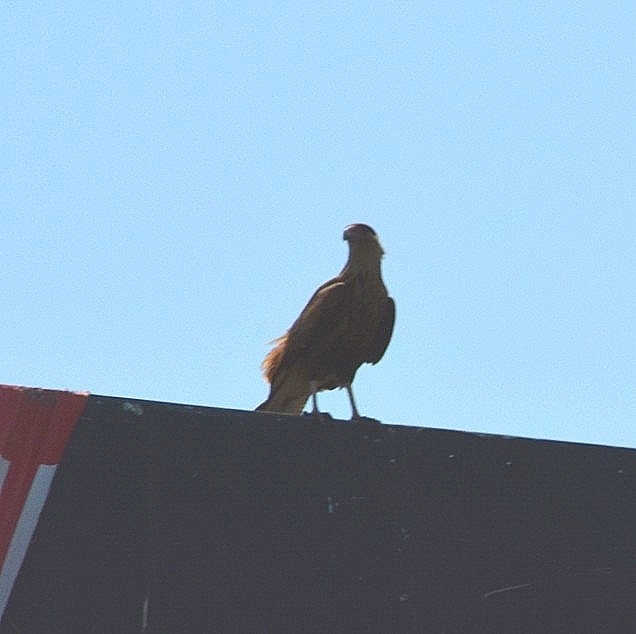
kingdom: Animalia
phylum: Chordata
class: Aves
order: Falconiformes
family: Falconidae
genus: Caracara
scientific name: Caracara plancus
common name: Southern caracara
